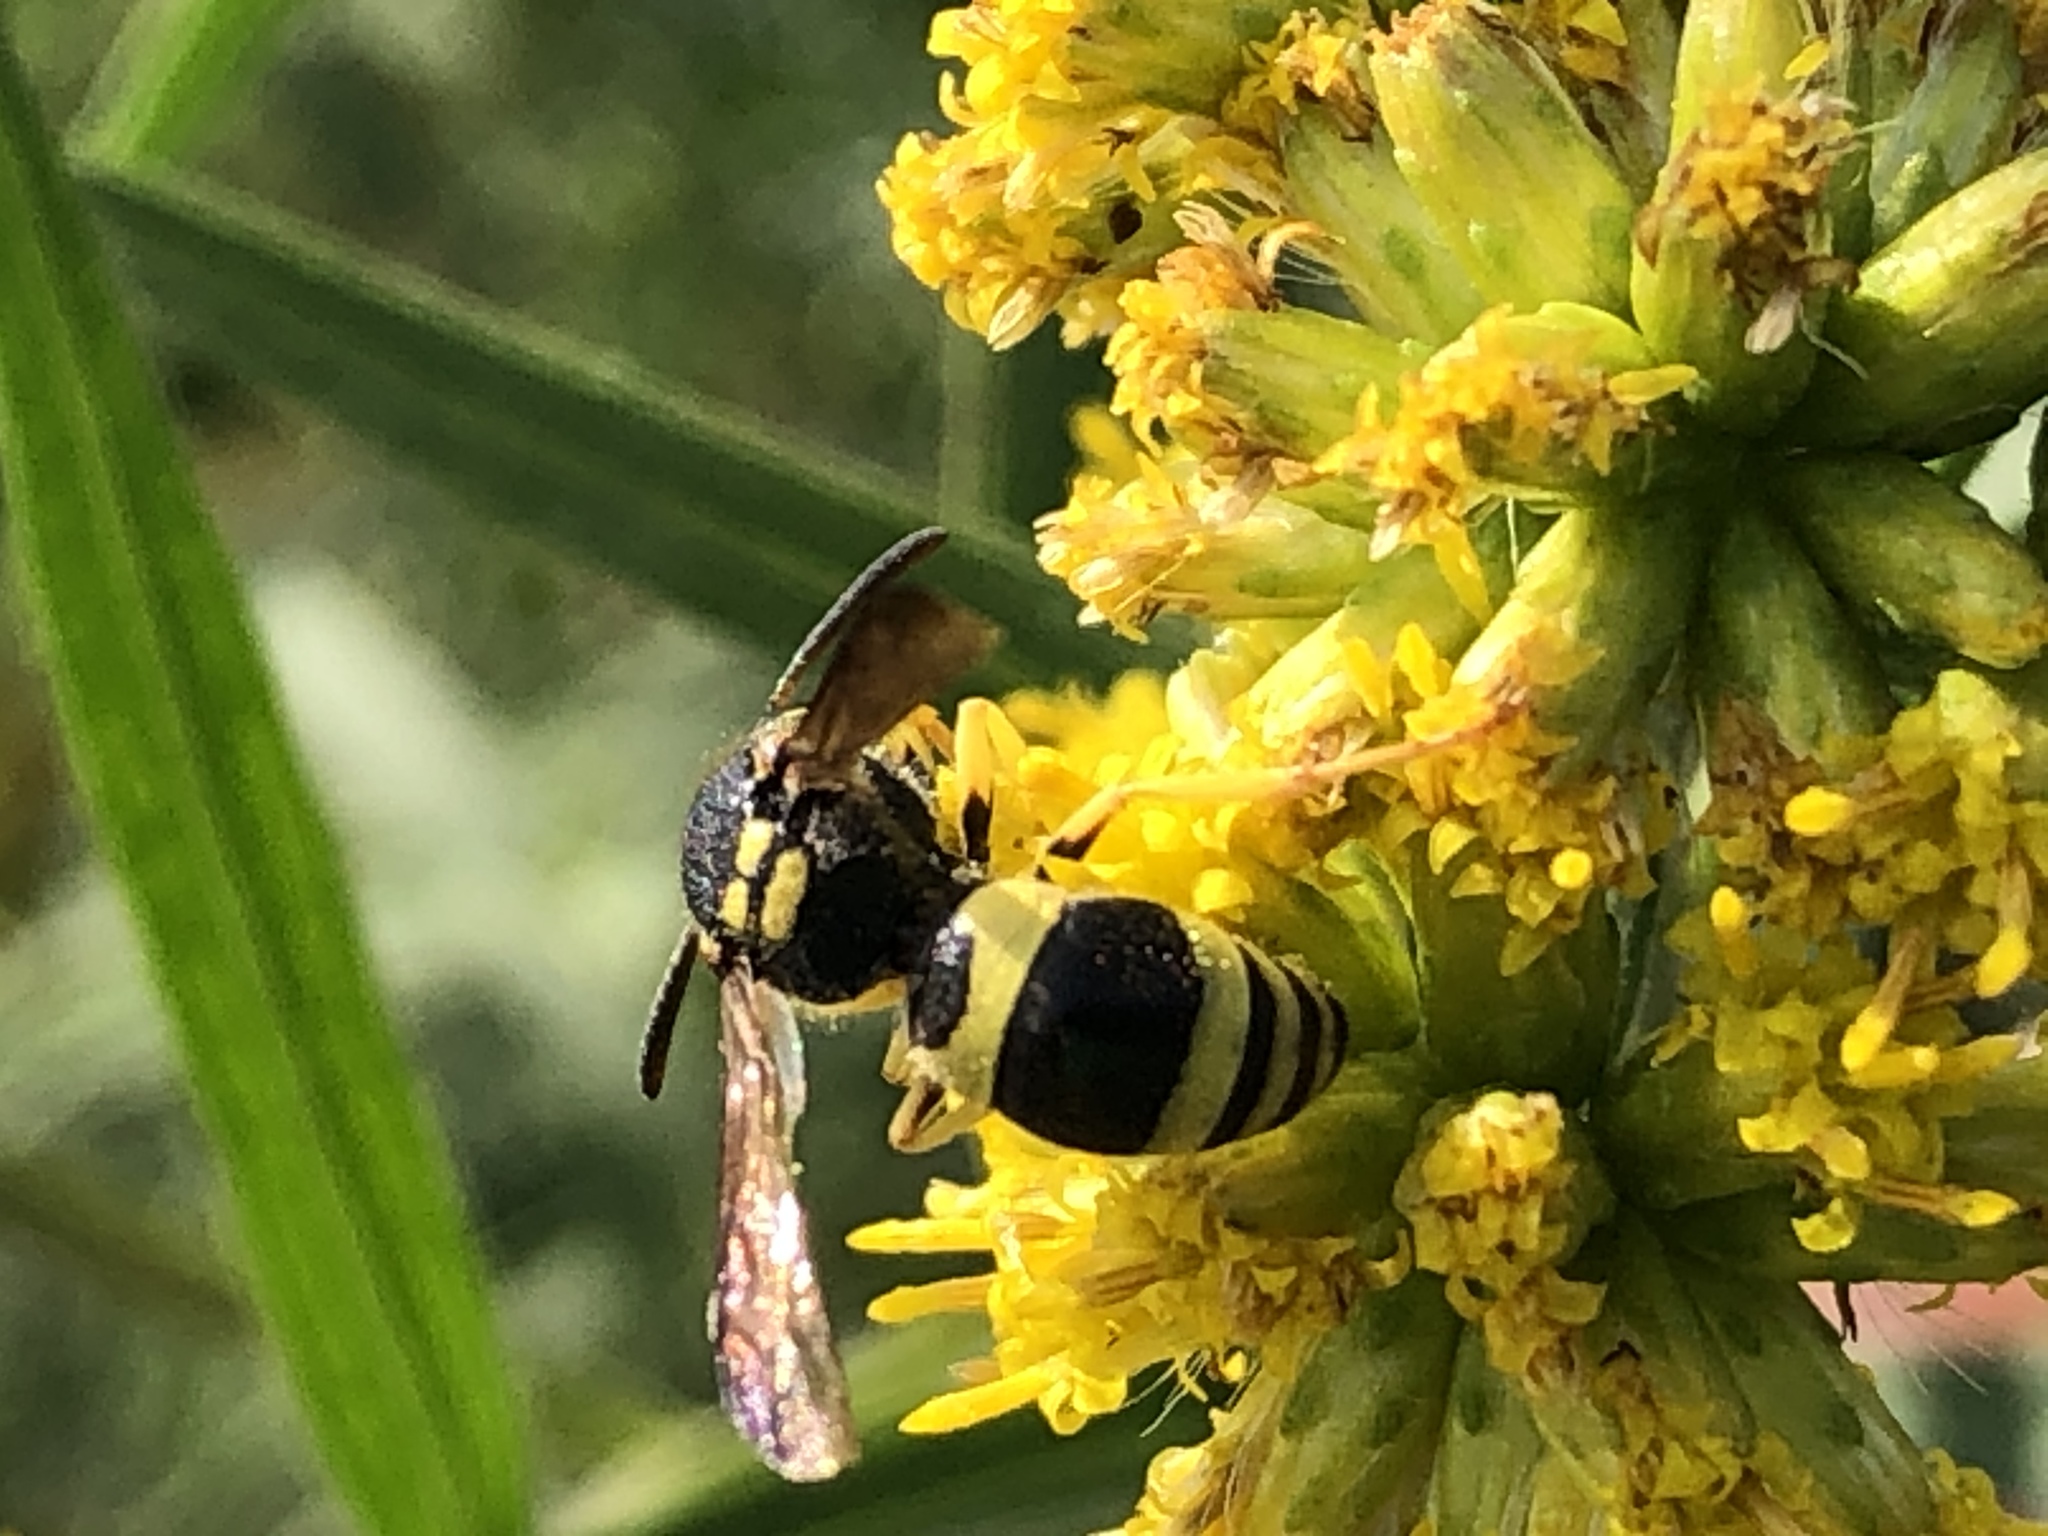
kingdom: Animalia
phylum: Arthropoda
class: Insecta
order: Hymenoptera
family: Vespidae
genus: Ancistrocerus
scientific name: Ancistrocerus gazella
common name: European tube wasp
